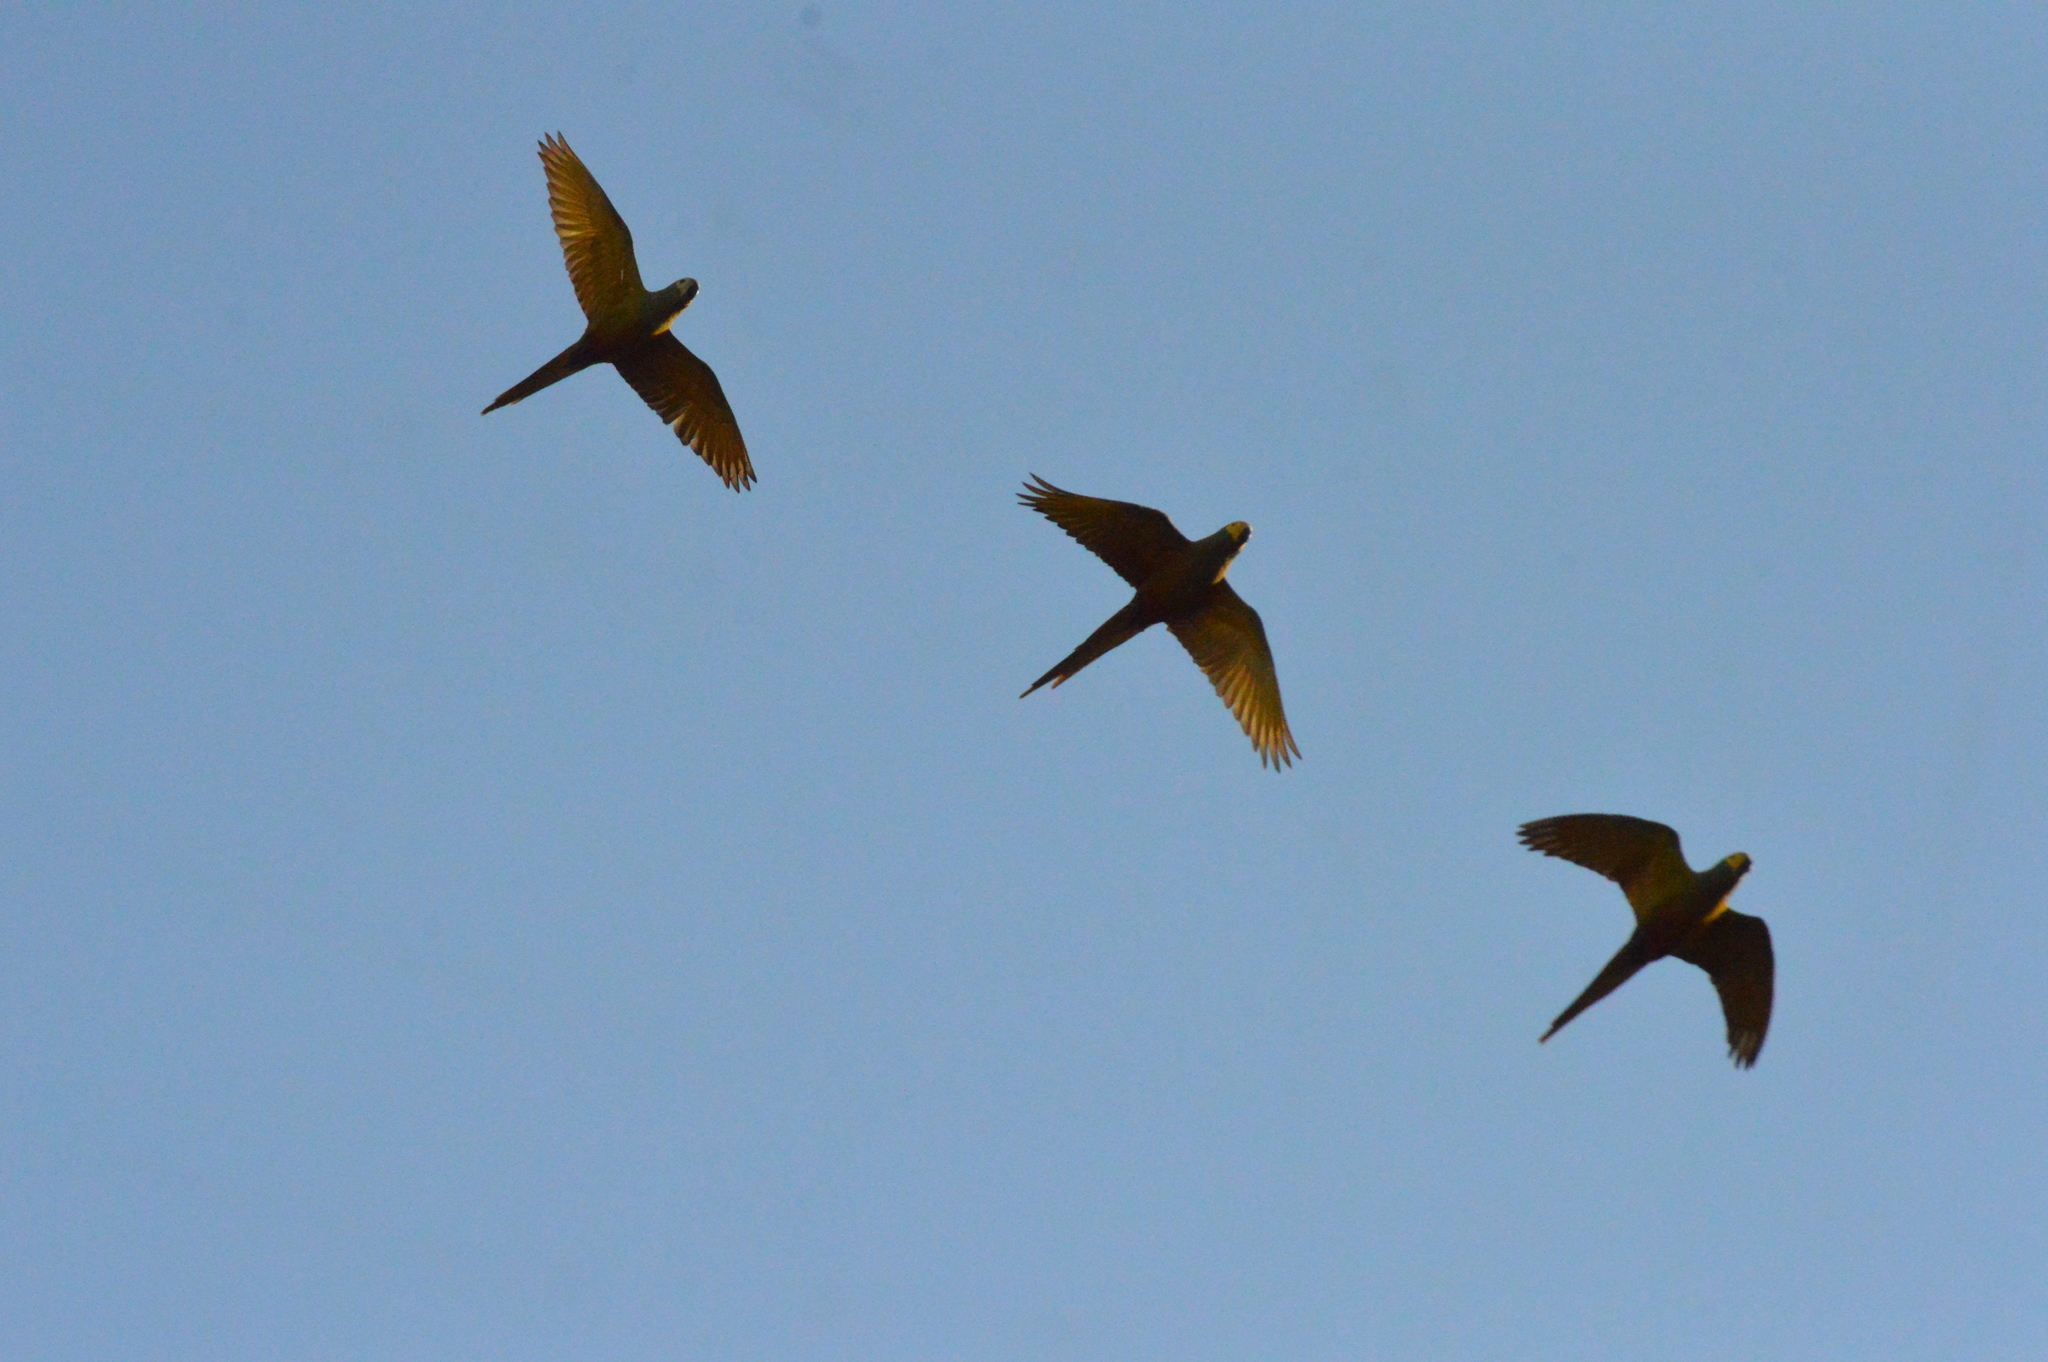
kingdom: Animalia
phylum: Chordata
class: Aves
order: Psittaciformes
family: Psittacidae
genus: Aratinga
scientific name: Aratinga leucophthalma
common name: White-eyed parakeet
